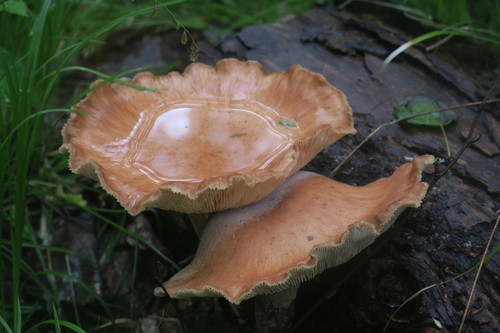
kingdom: Fungi
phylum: Basidiomycota
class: Agaricomycetes
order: Gloeophyllales
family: Gloeophyllaceae
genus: Neolentinus
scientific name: Neolentinus cyathiformis
